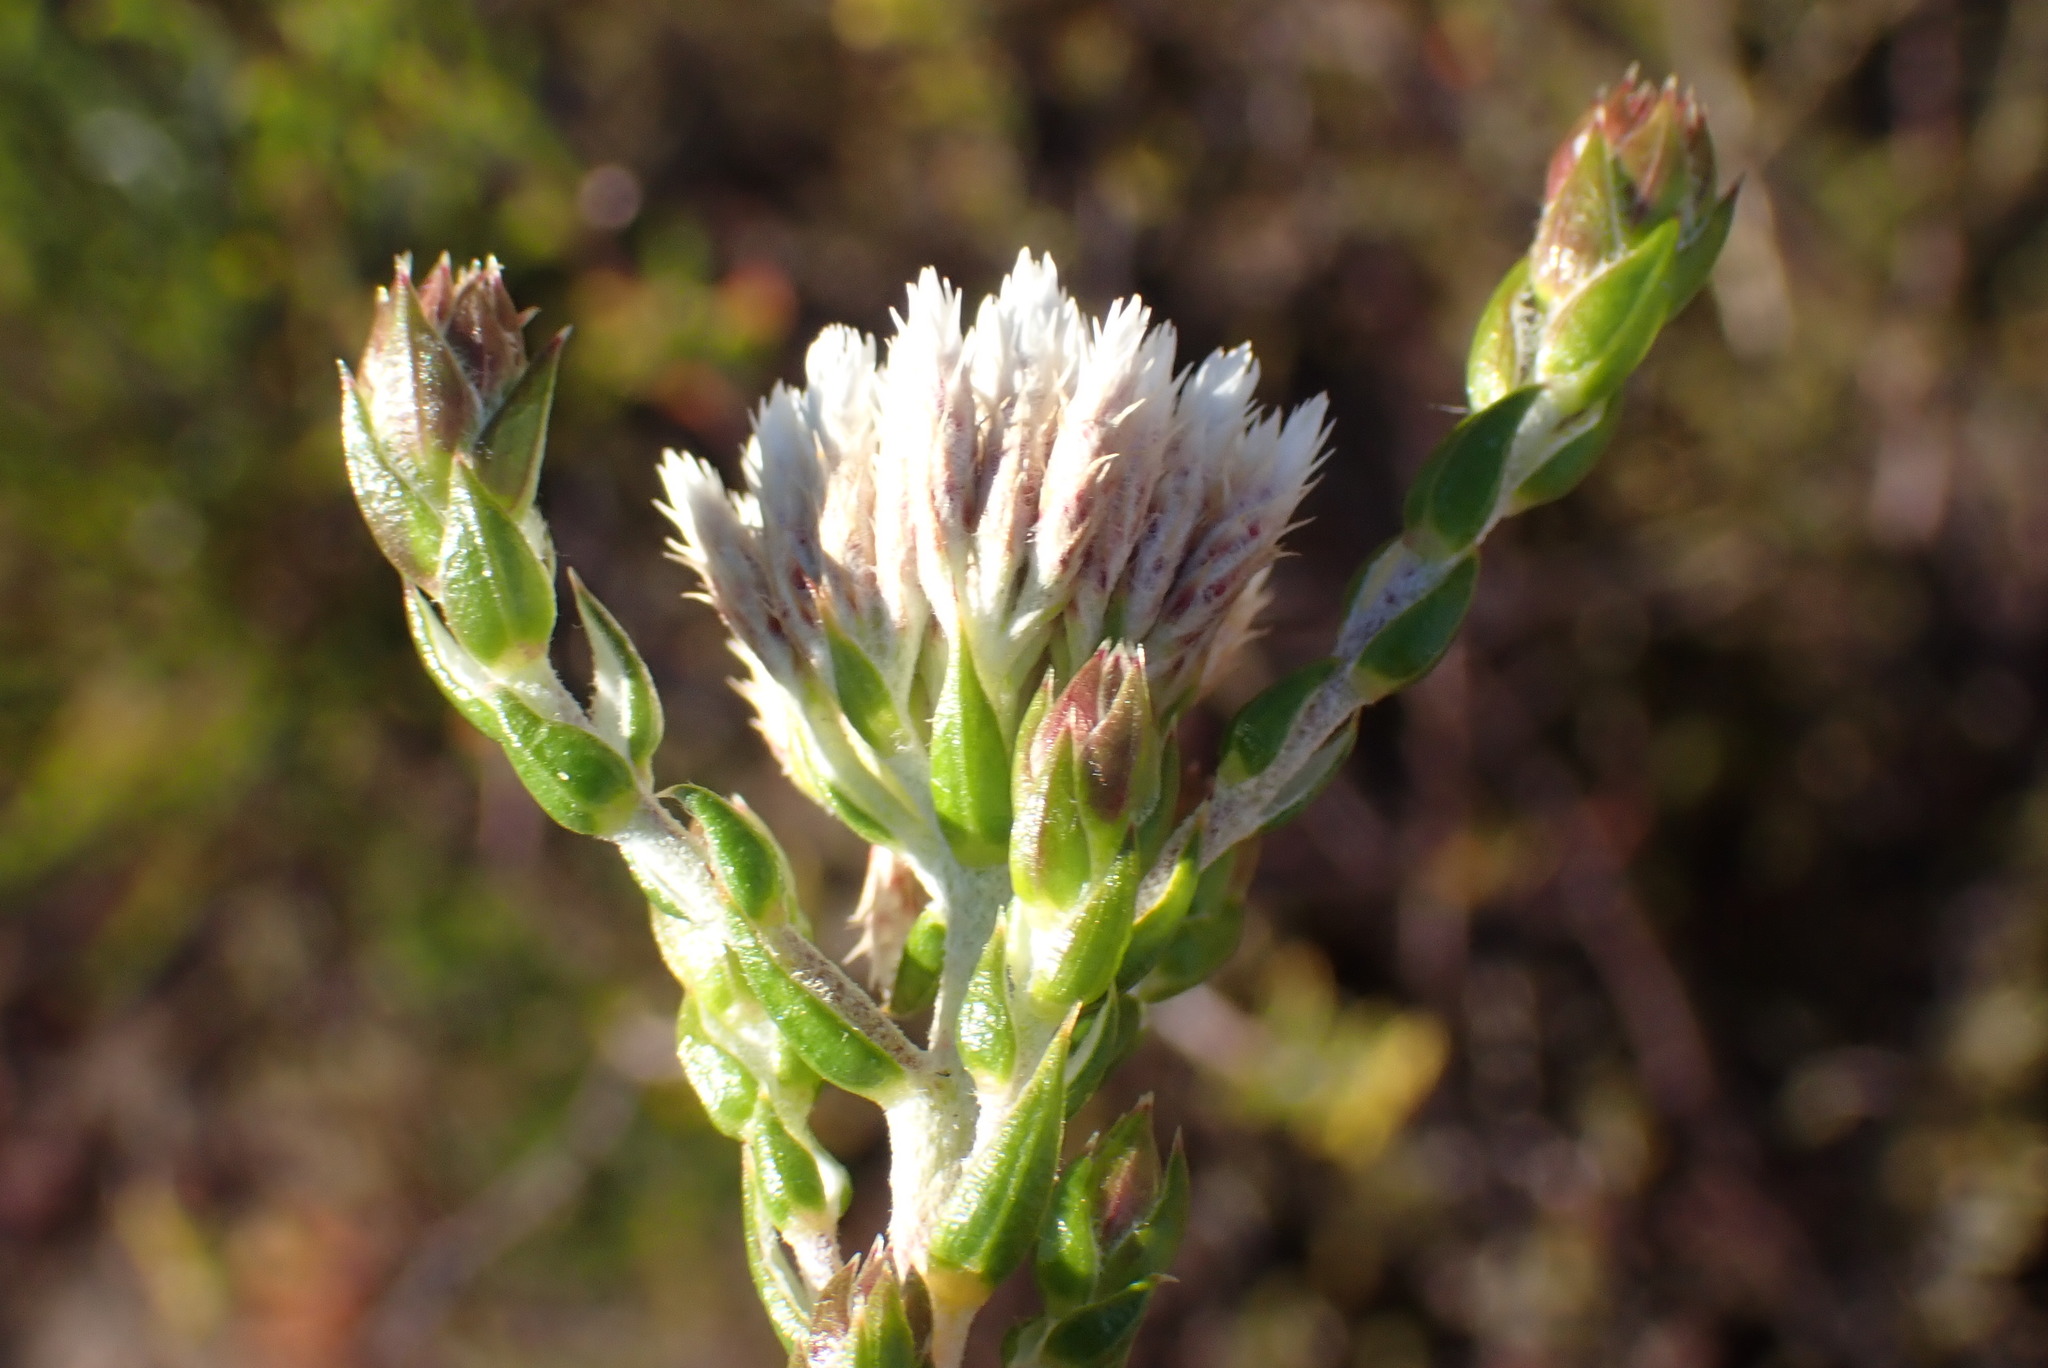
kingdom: Plantae
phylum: Tracheophyta
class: Magnoliopsida
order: Asterales
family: Asteraceae
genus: Metalasia
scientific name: Metalasia pulcherrima
